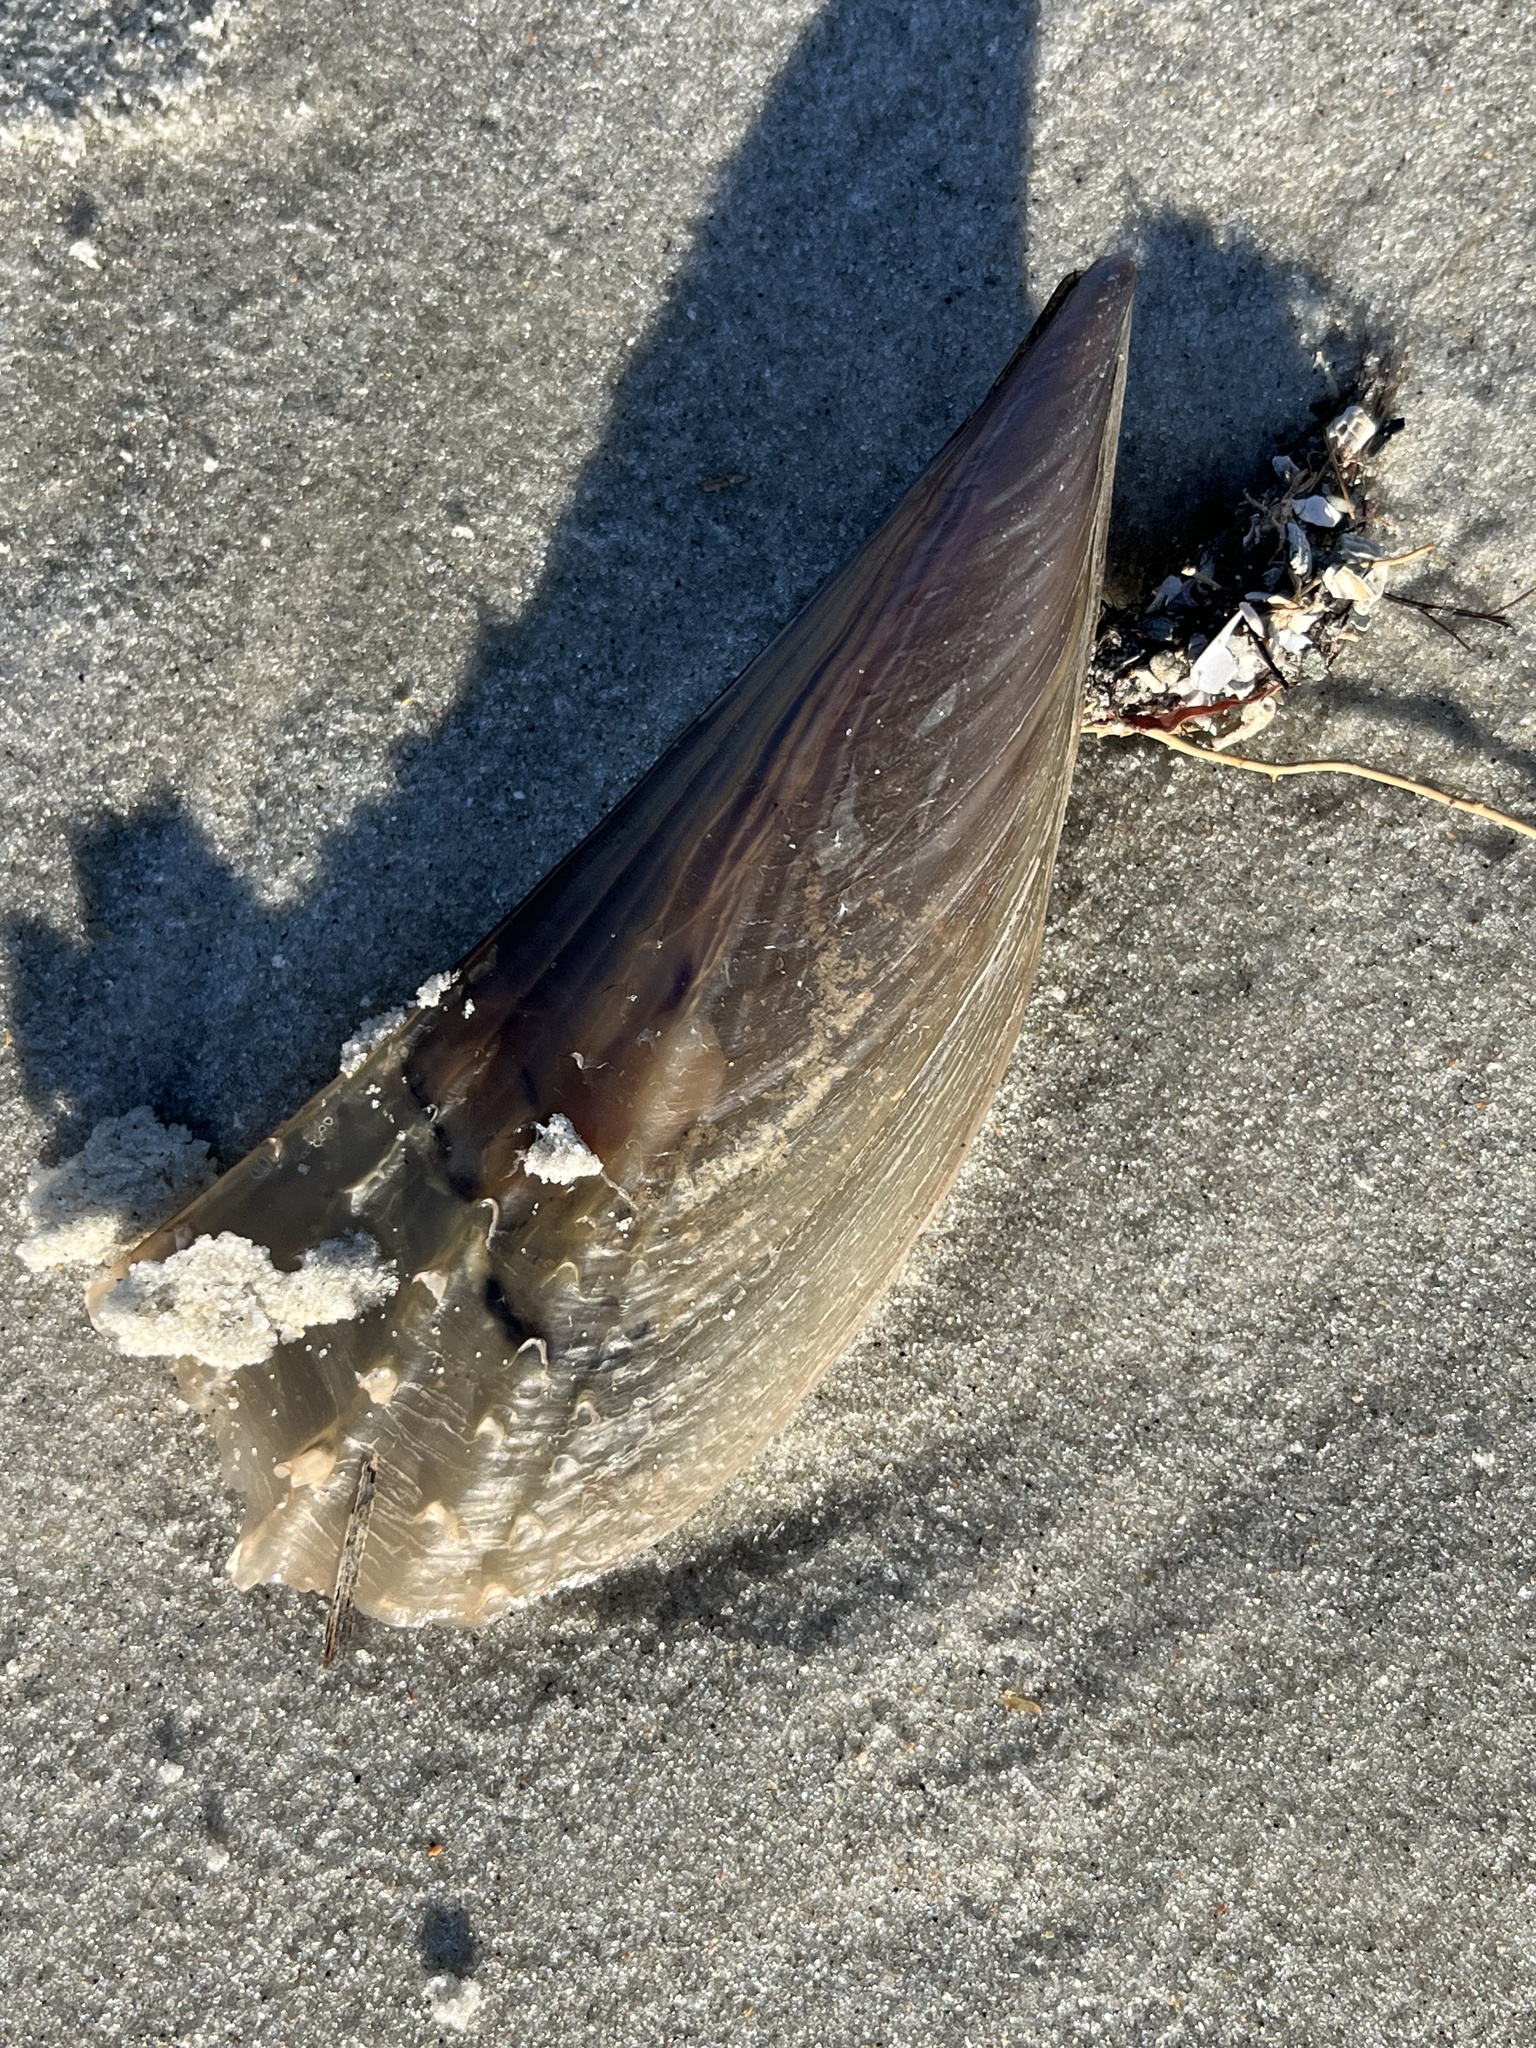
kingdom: Animalia
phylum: Mollusca
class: Bivalvia
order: Ostreida
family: Pinnidae
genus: Atrina
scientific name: Atrina seminuda
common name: Half-naked penshell
